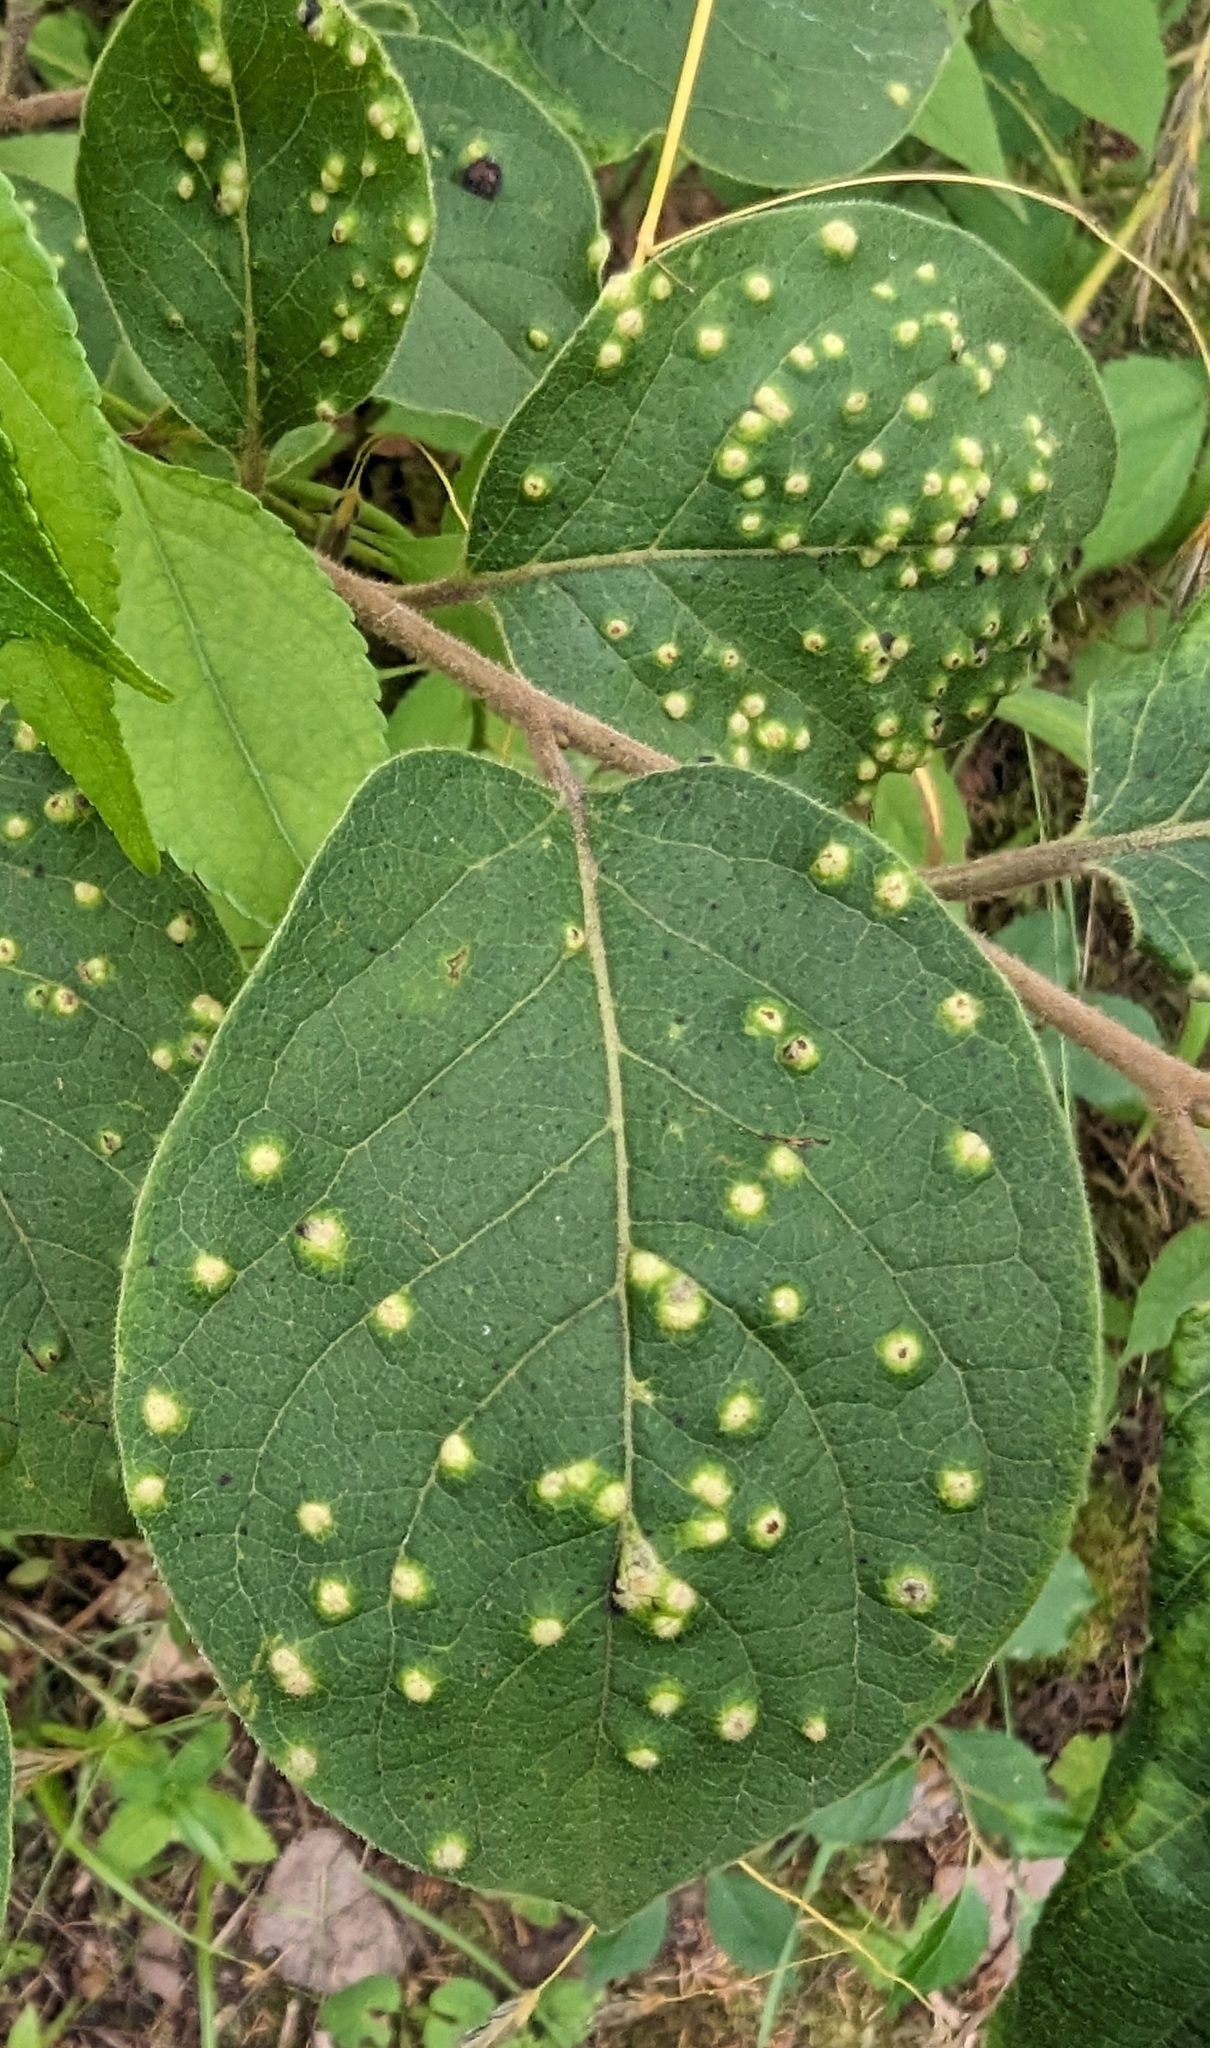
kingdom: Animalia
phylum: Arthropoda
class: Arachnida
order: Trombidiformes
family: Eriophyidae
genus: Aceria
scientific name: Aceria
